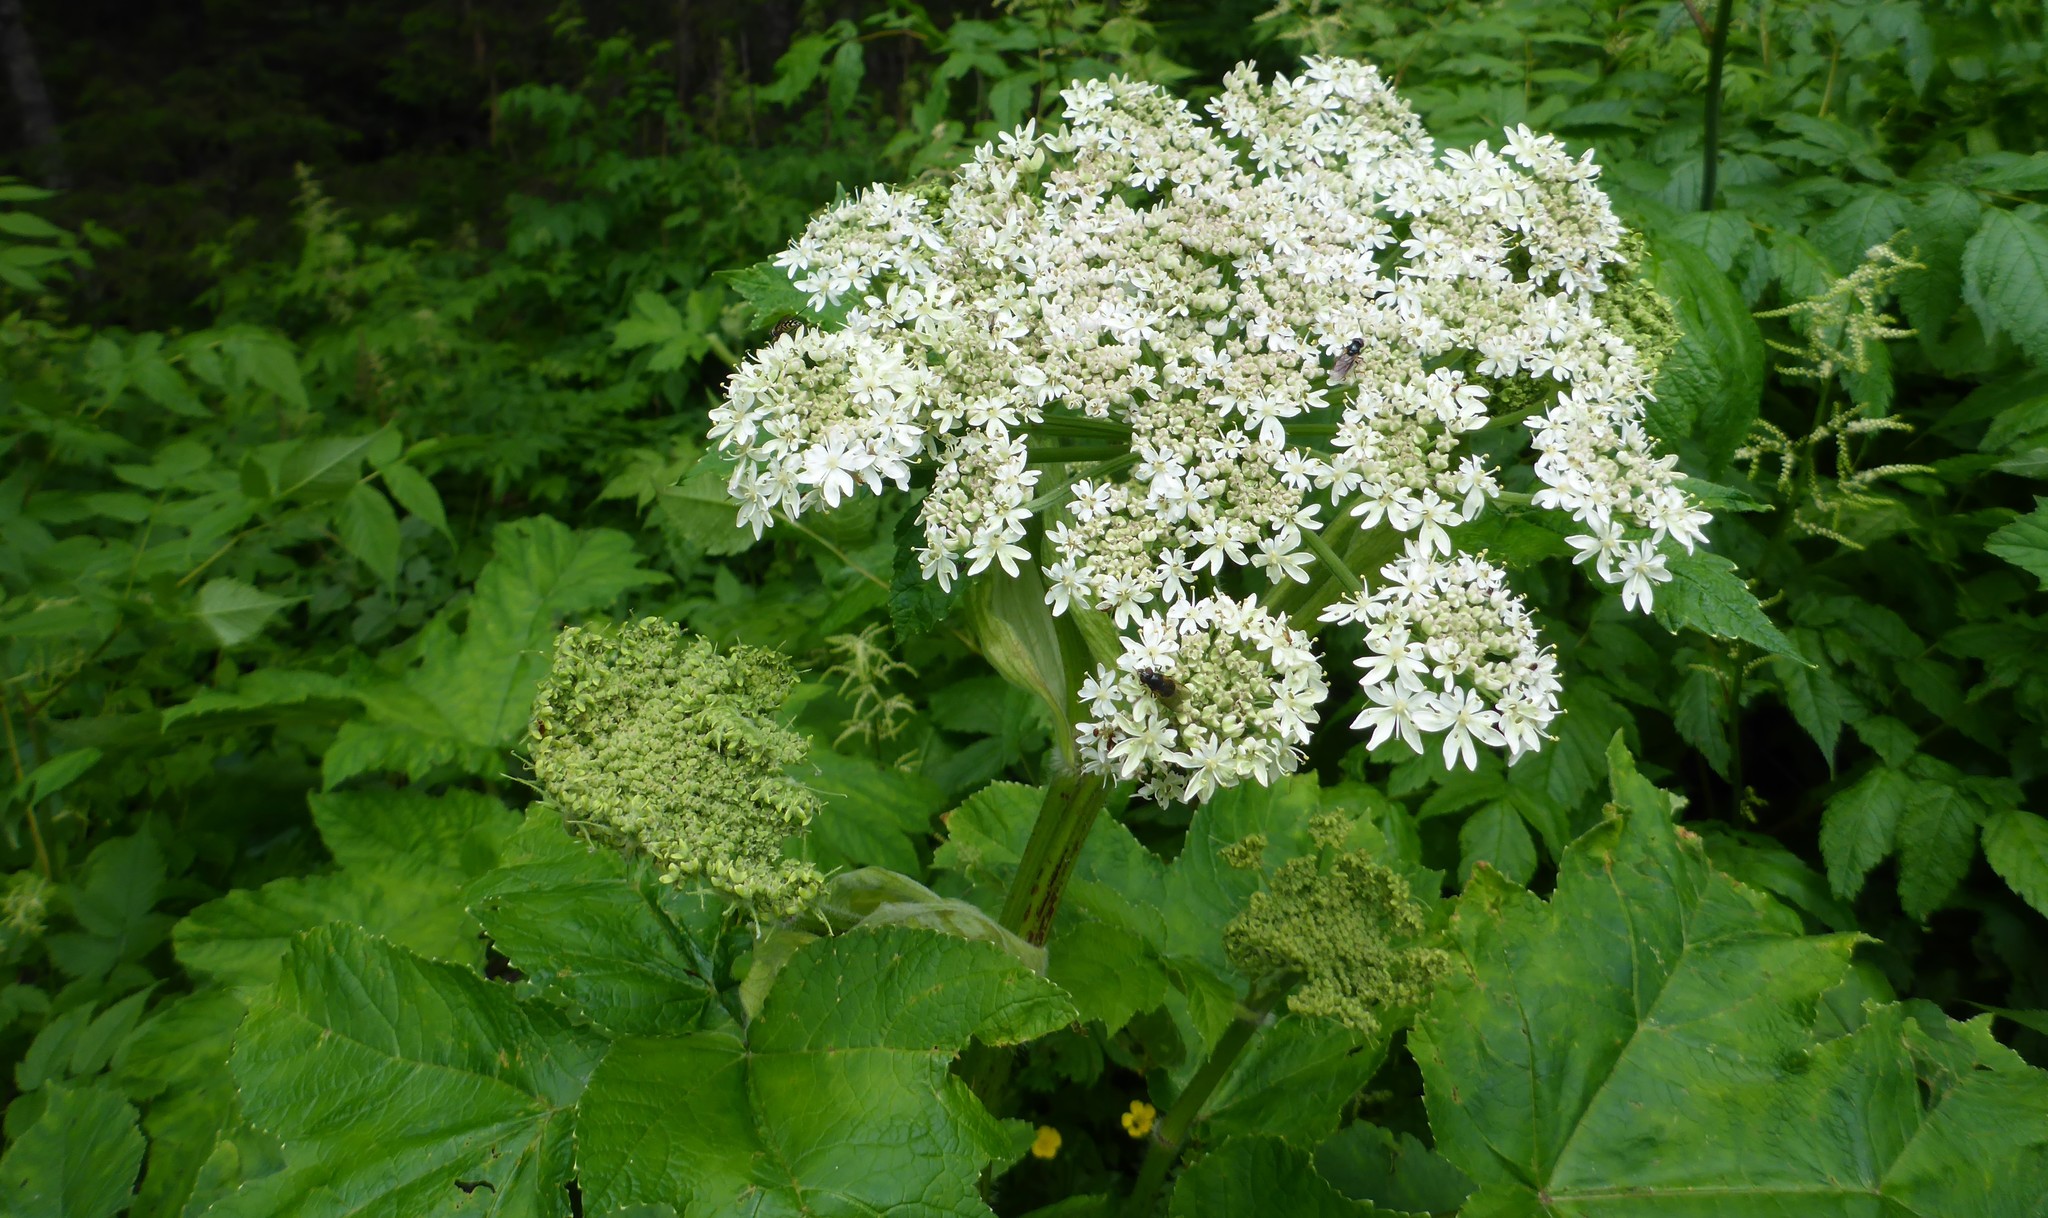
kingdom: Plantae
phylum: Tracheophyta
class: Magnoliopsida
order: Apiales
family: Apiaceae
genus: Heracleum
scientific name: Heracleum maximum
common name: American cow parsnip
